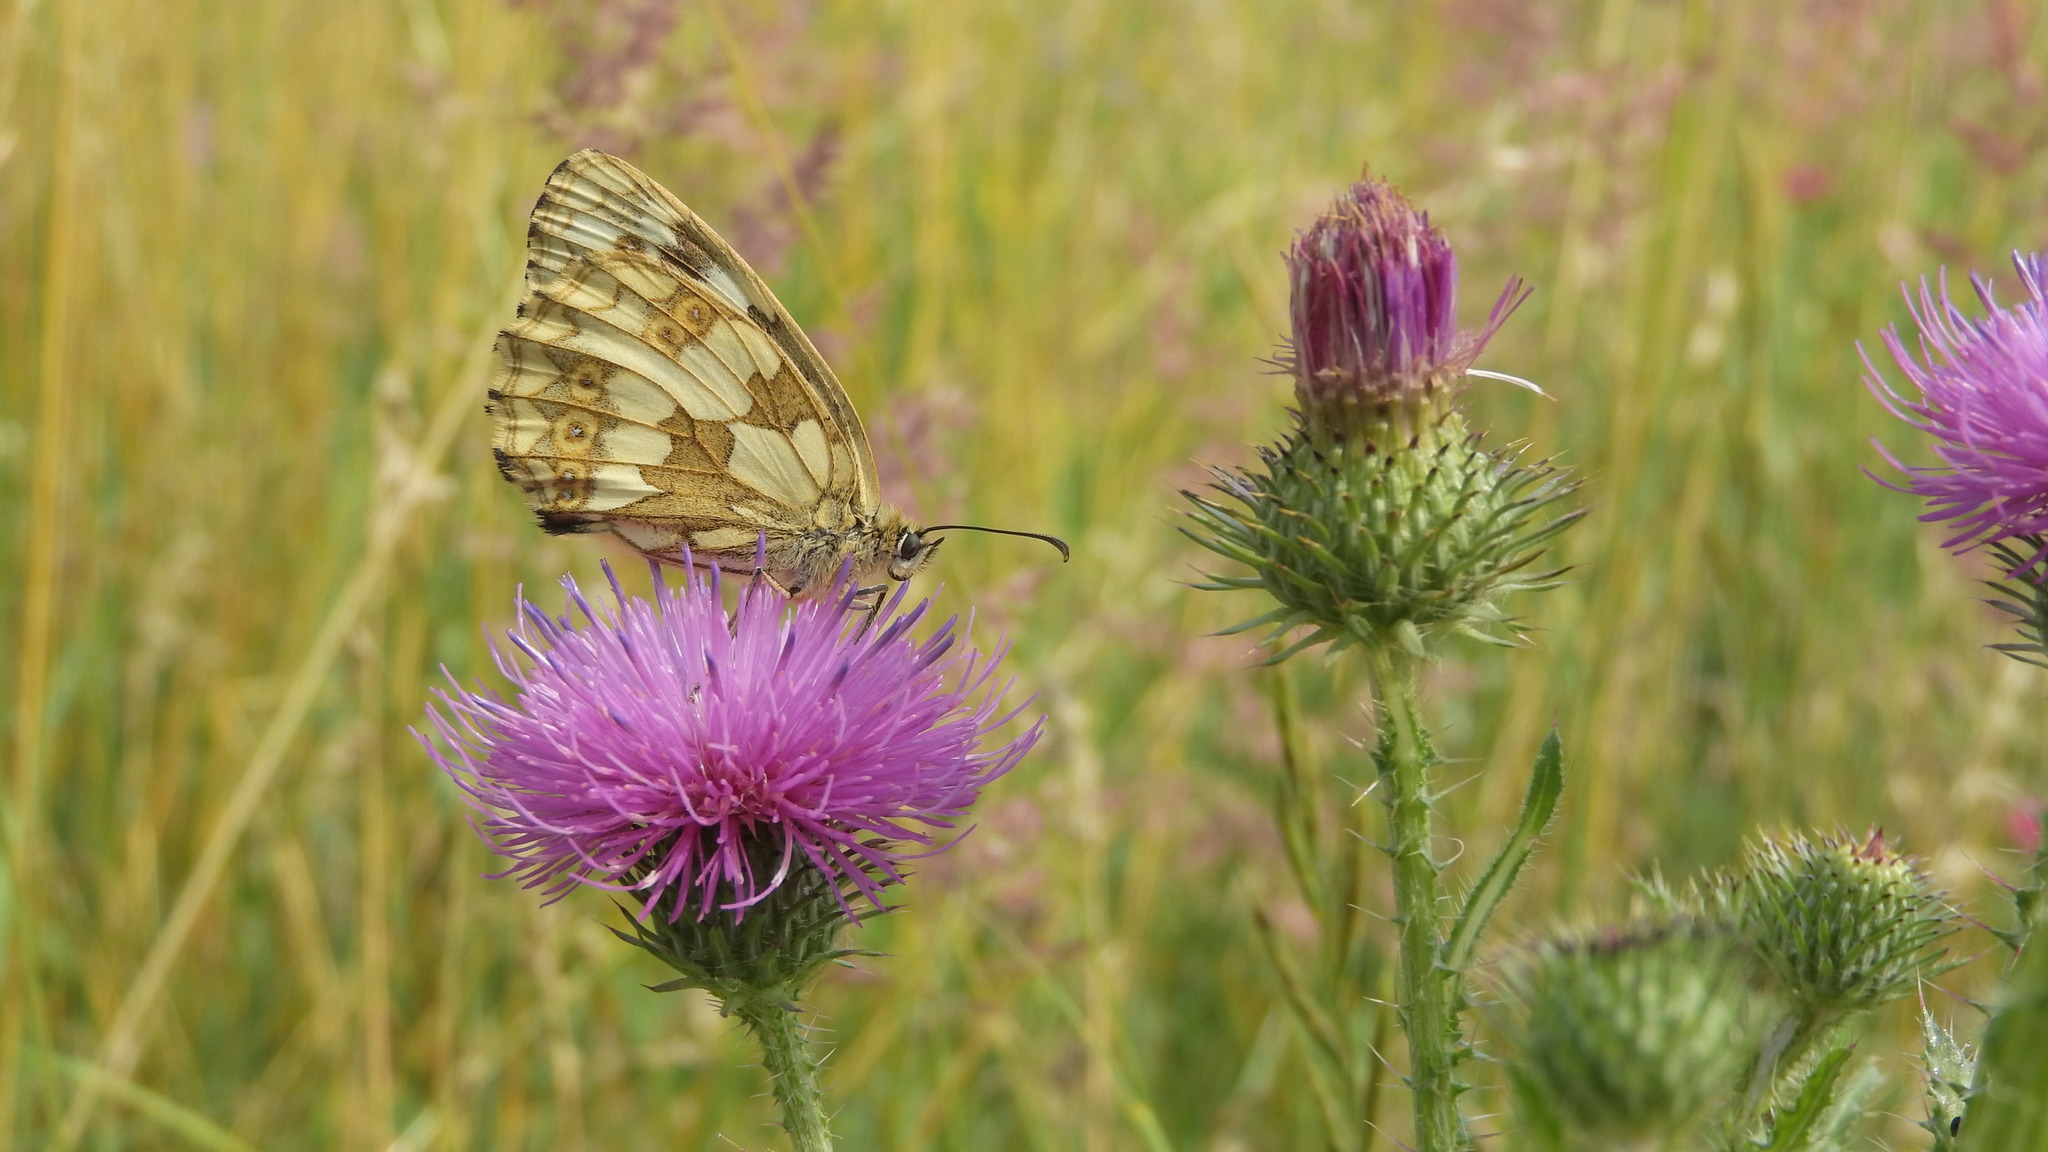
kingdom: Animalia
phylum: Arthropoda
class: Insecta
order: Lepidoptera
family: Nymphalidae
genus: Melanargia
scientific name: Melanargia galathea
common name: Marbled white
